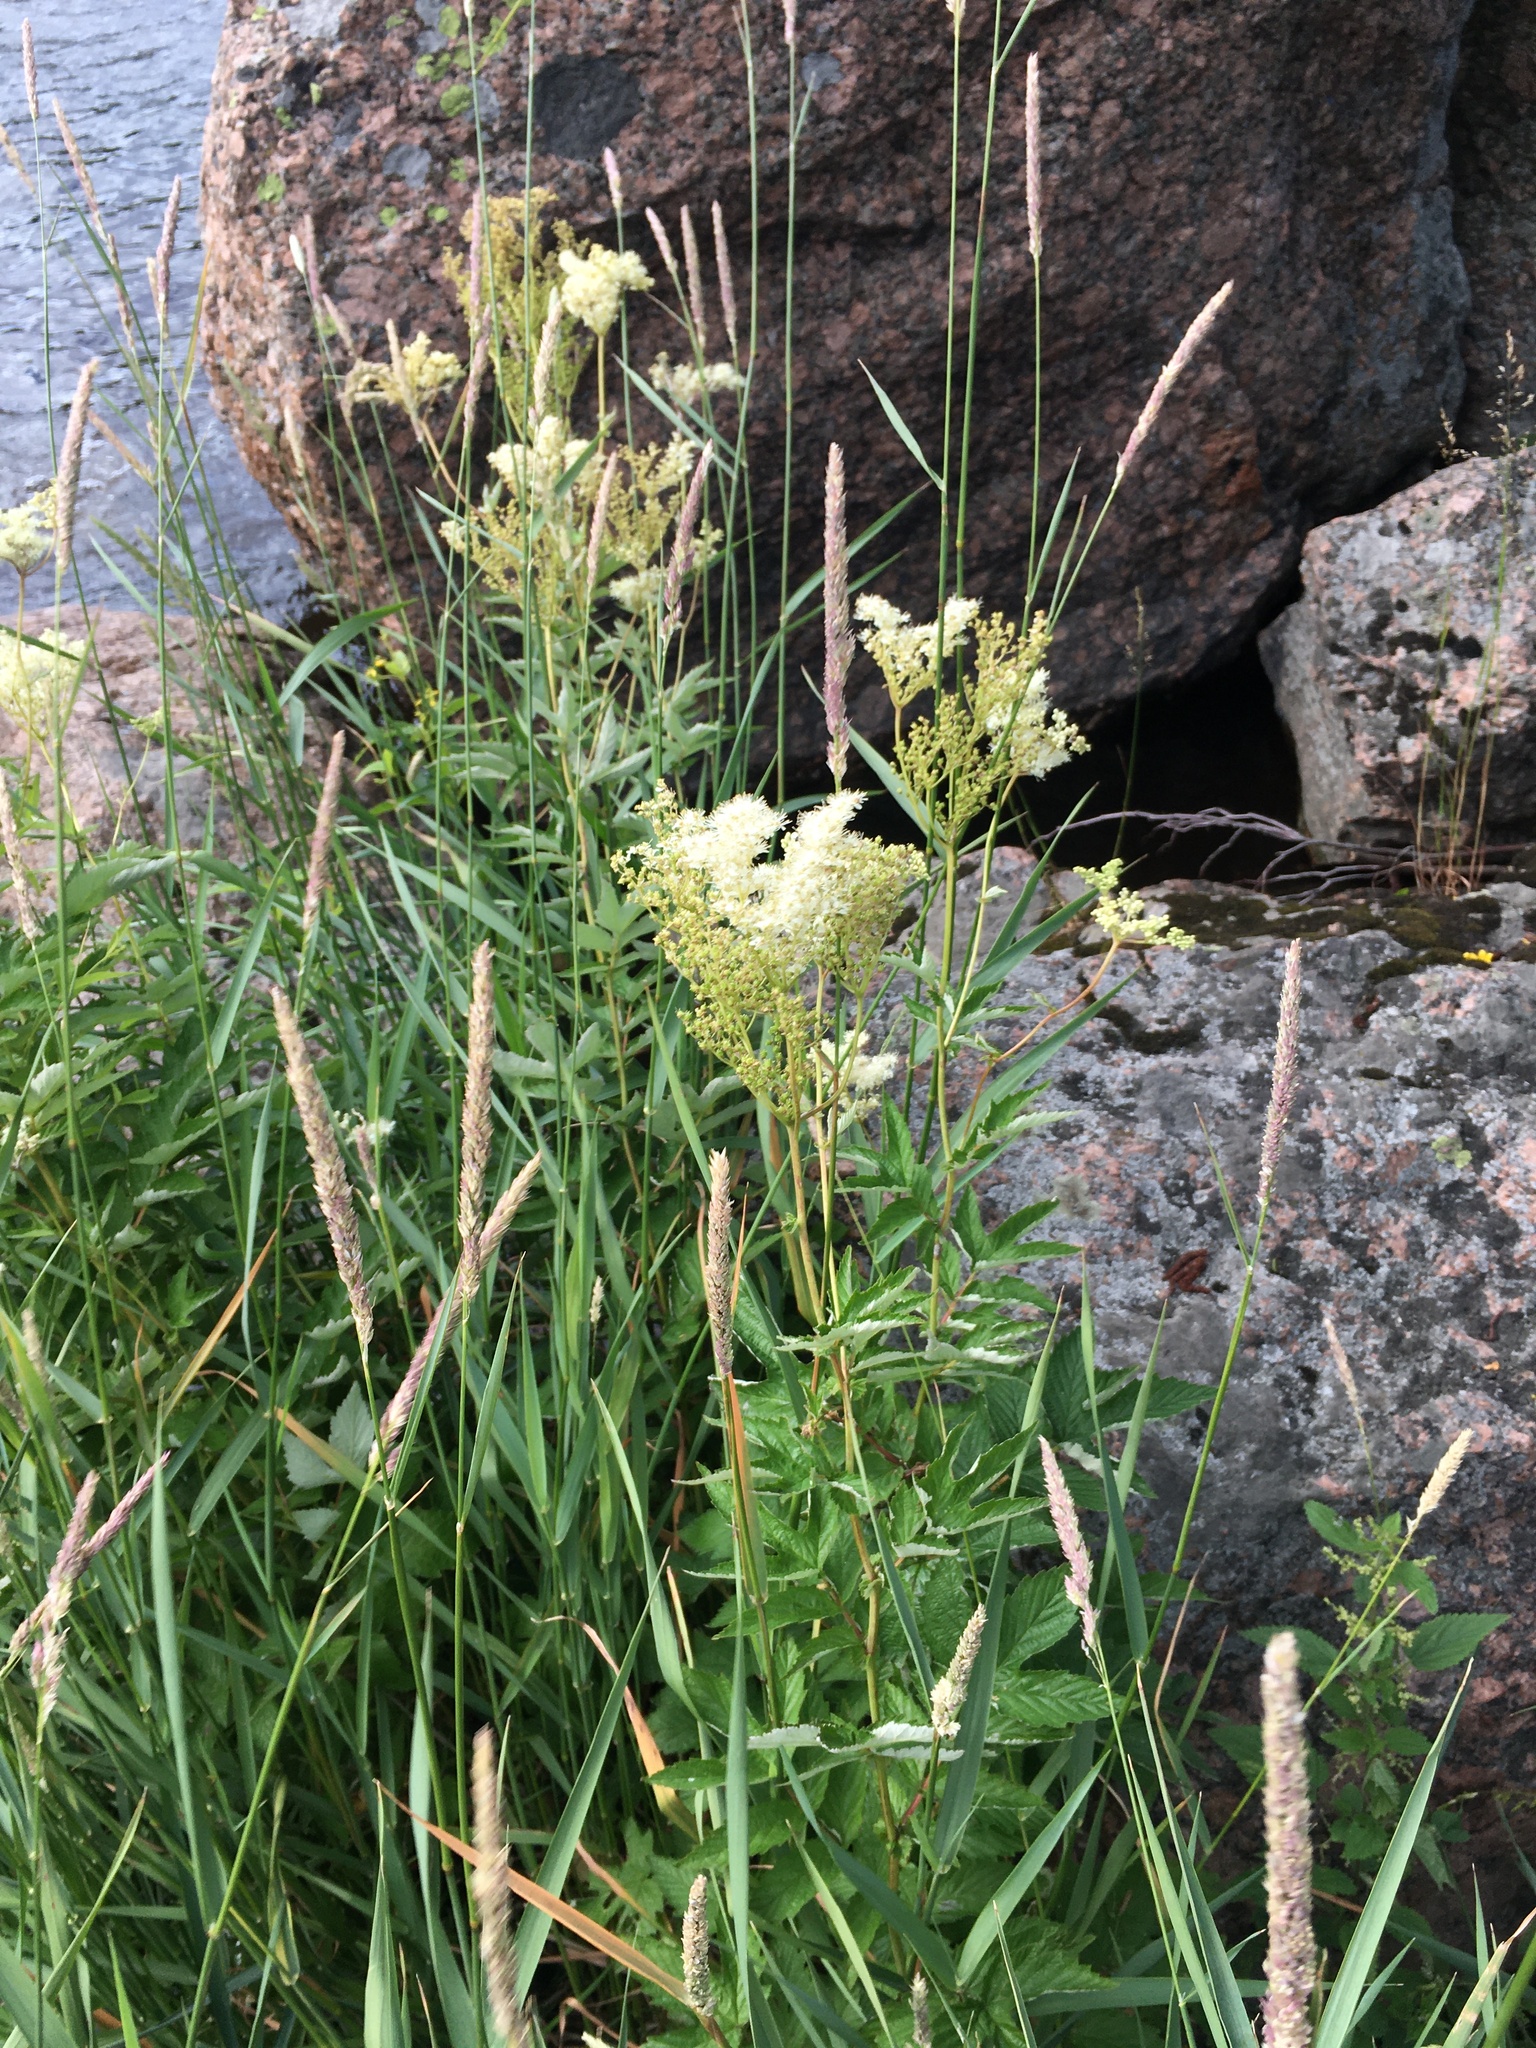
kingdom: Plantae
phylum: Tracheophyta
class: Magnoliopsida
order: Rosales
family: Rosaceae
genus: Filipendula
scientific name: Filipendula ulmaria
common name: Meadowsweet
